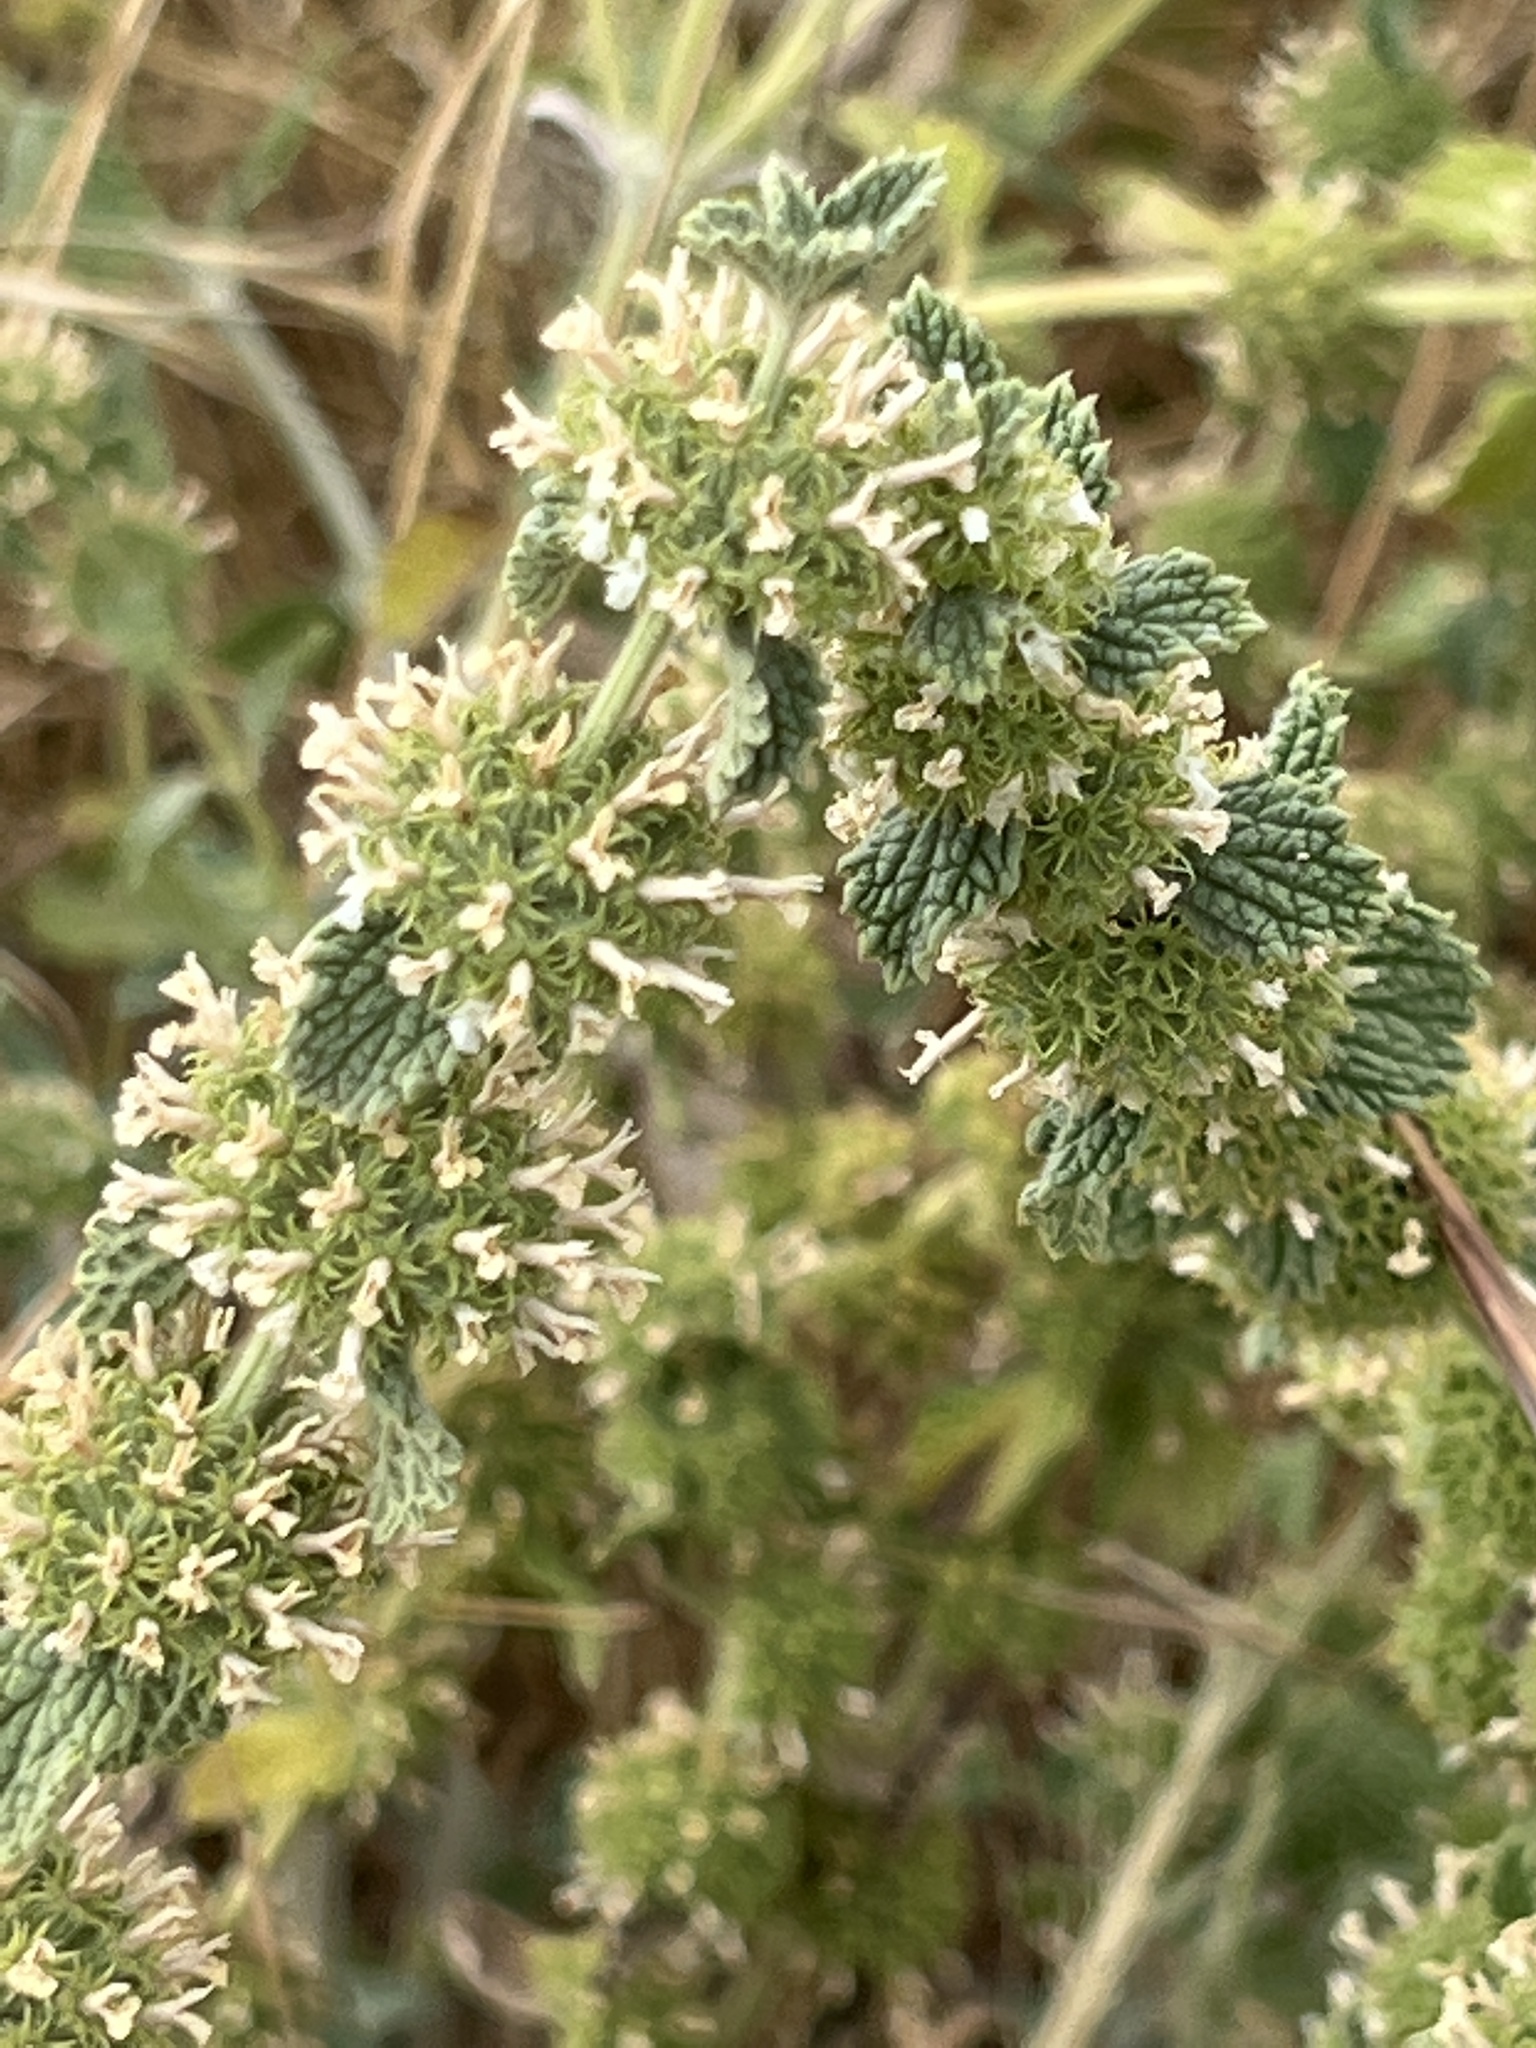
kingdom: Plantae
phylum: Tracheophyta
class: Magnoliopsida
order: Lamiales
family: Lamiaceae
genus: Marrubium
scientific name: Marrubium vulgare
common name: Horehound
